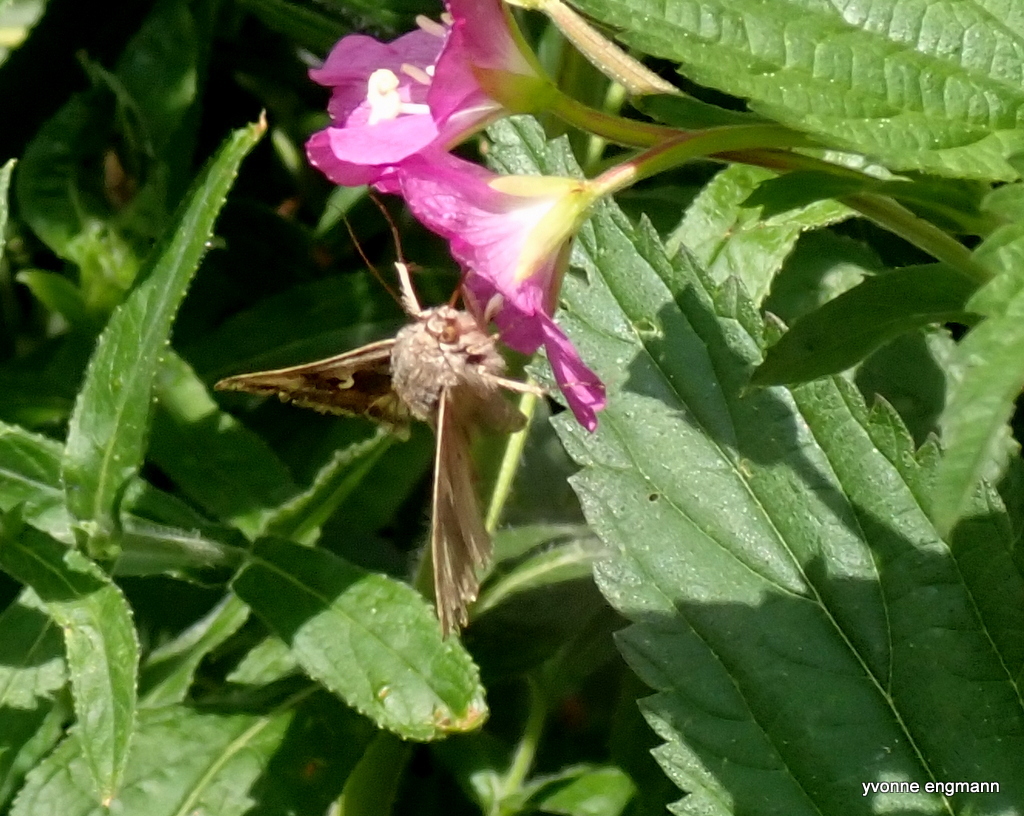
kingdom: Animalia
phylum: Arthropoda
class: Insecta
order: Lepidoptera
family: Noctuidae
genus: Autographa
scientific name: Autographa gamma
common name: Silver y
